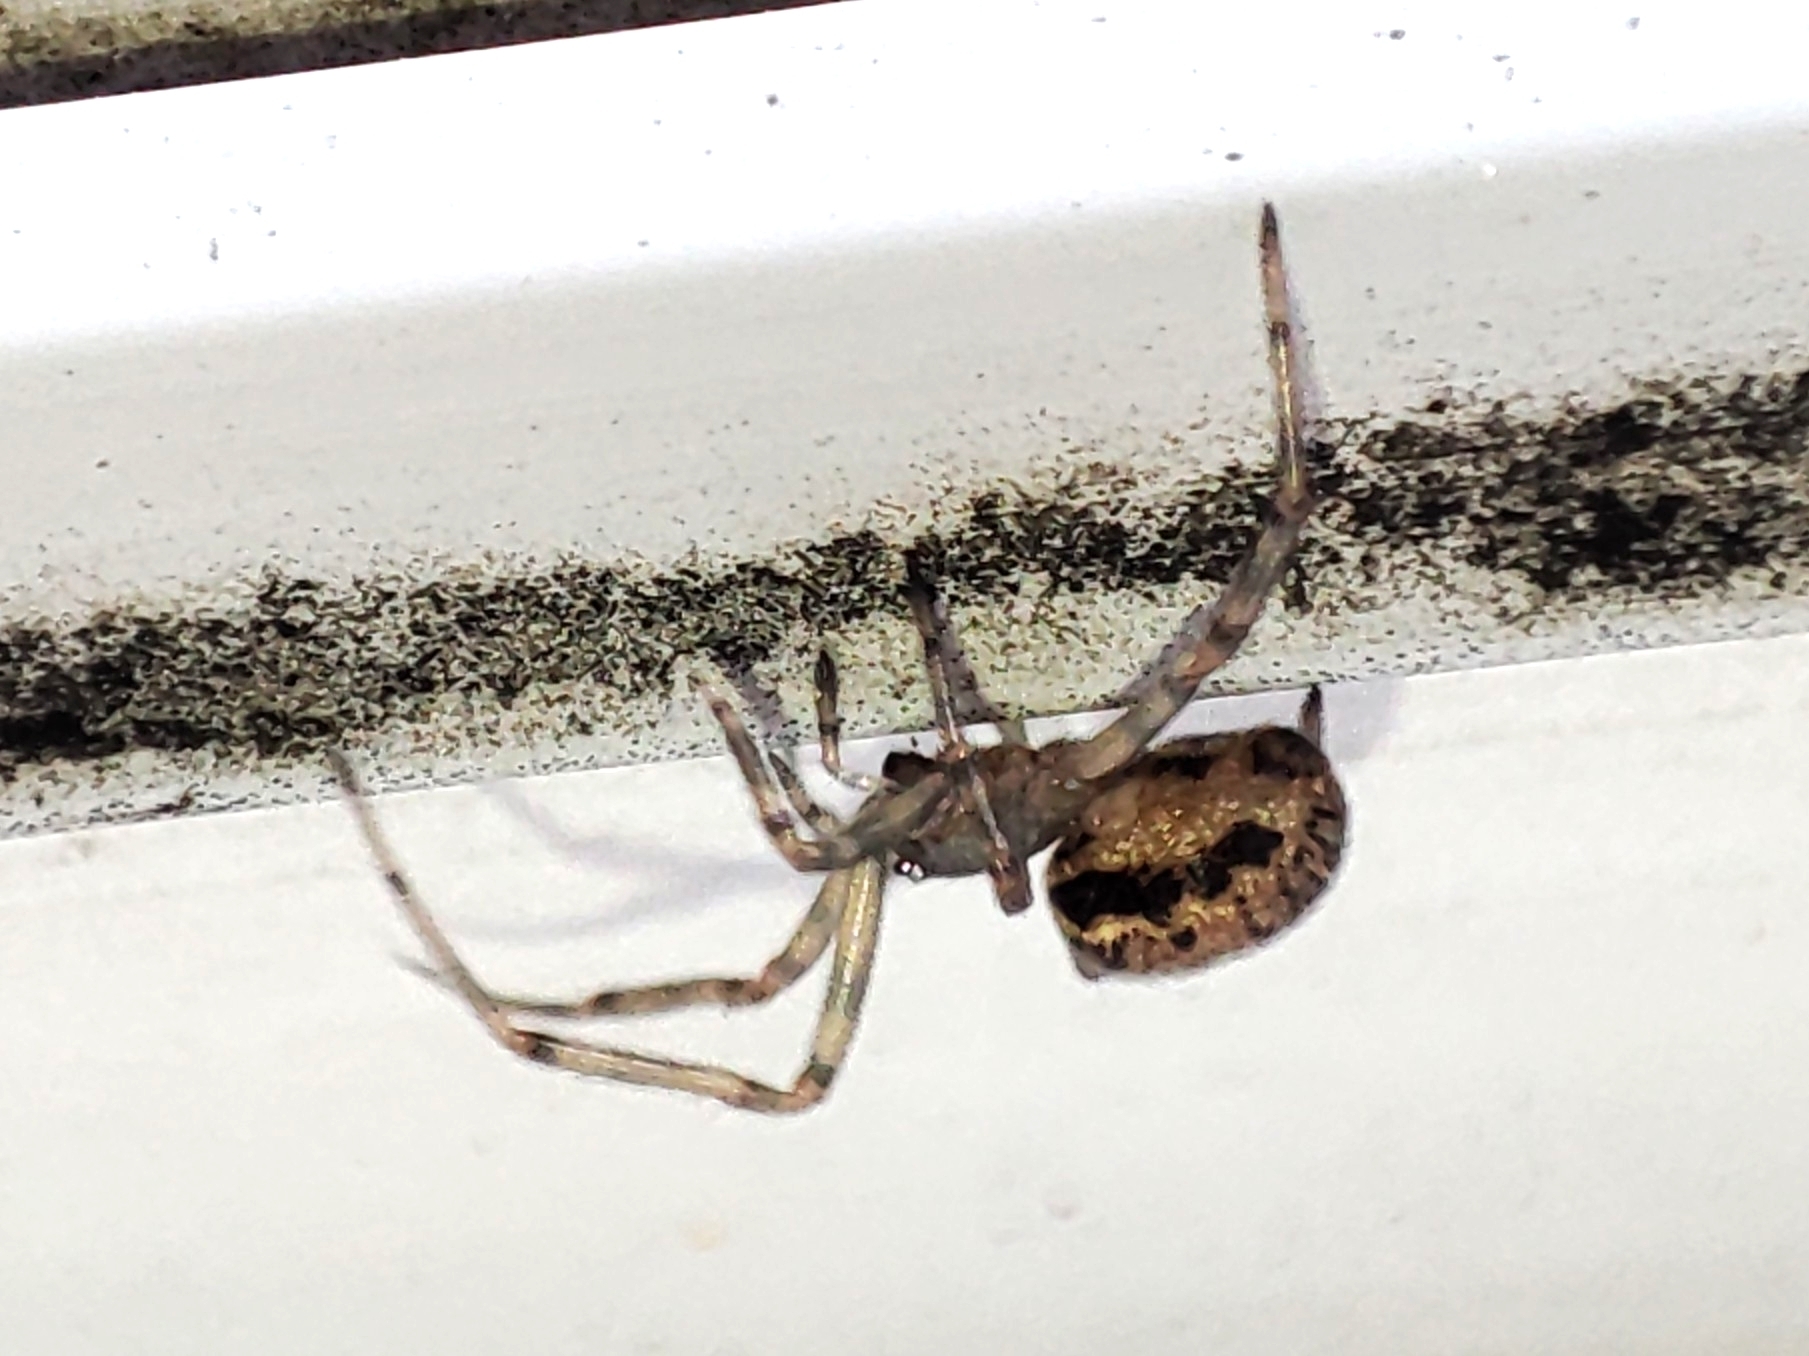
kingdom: Animalia
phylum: Arthropoda
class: Arachnida
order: Araneae
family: Theridiidae
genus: Steatoda
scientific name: Steatoda castanea
